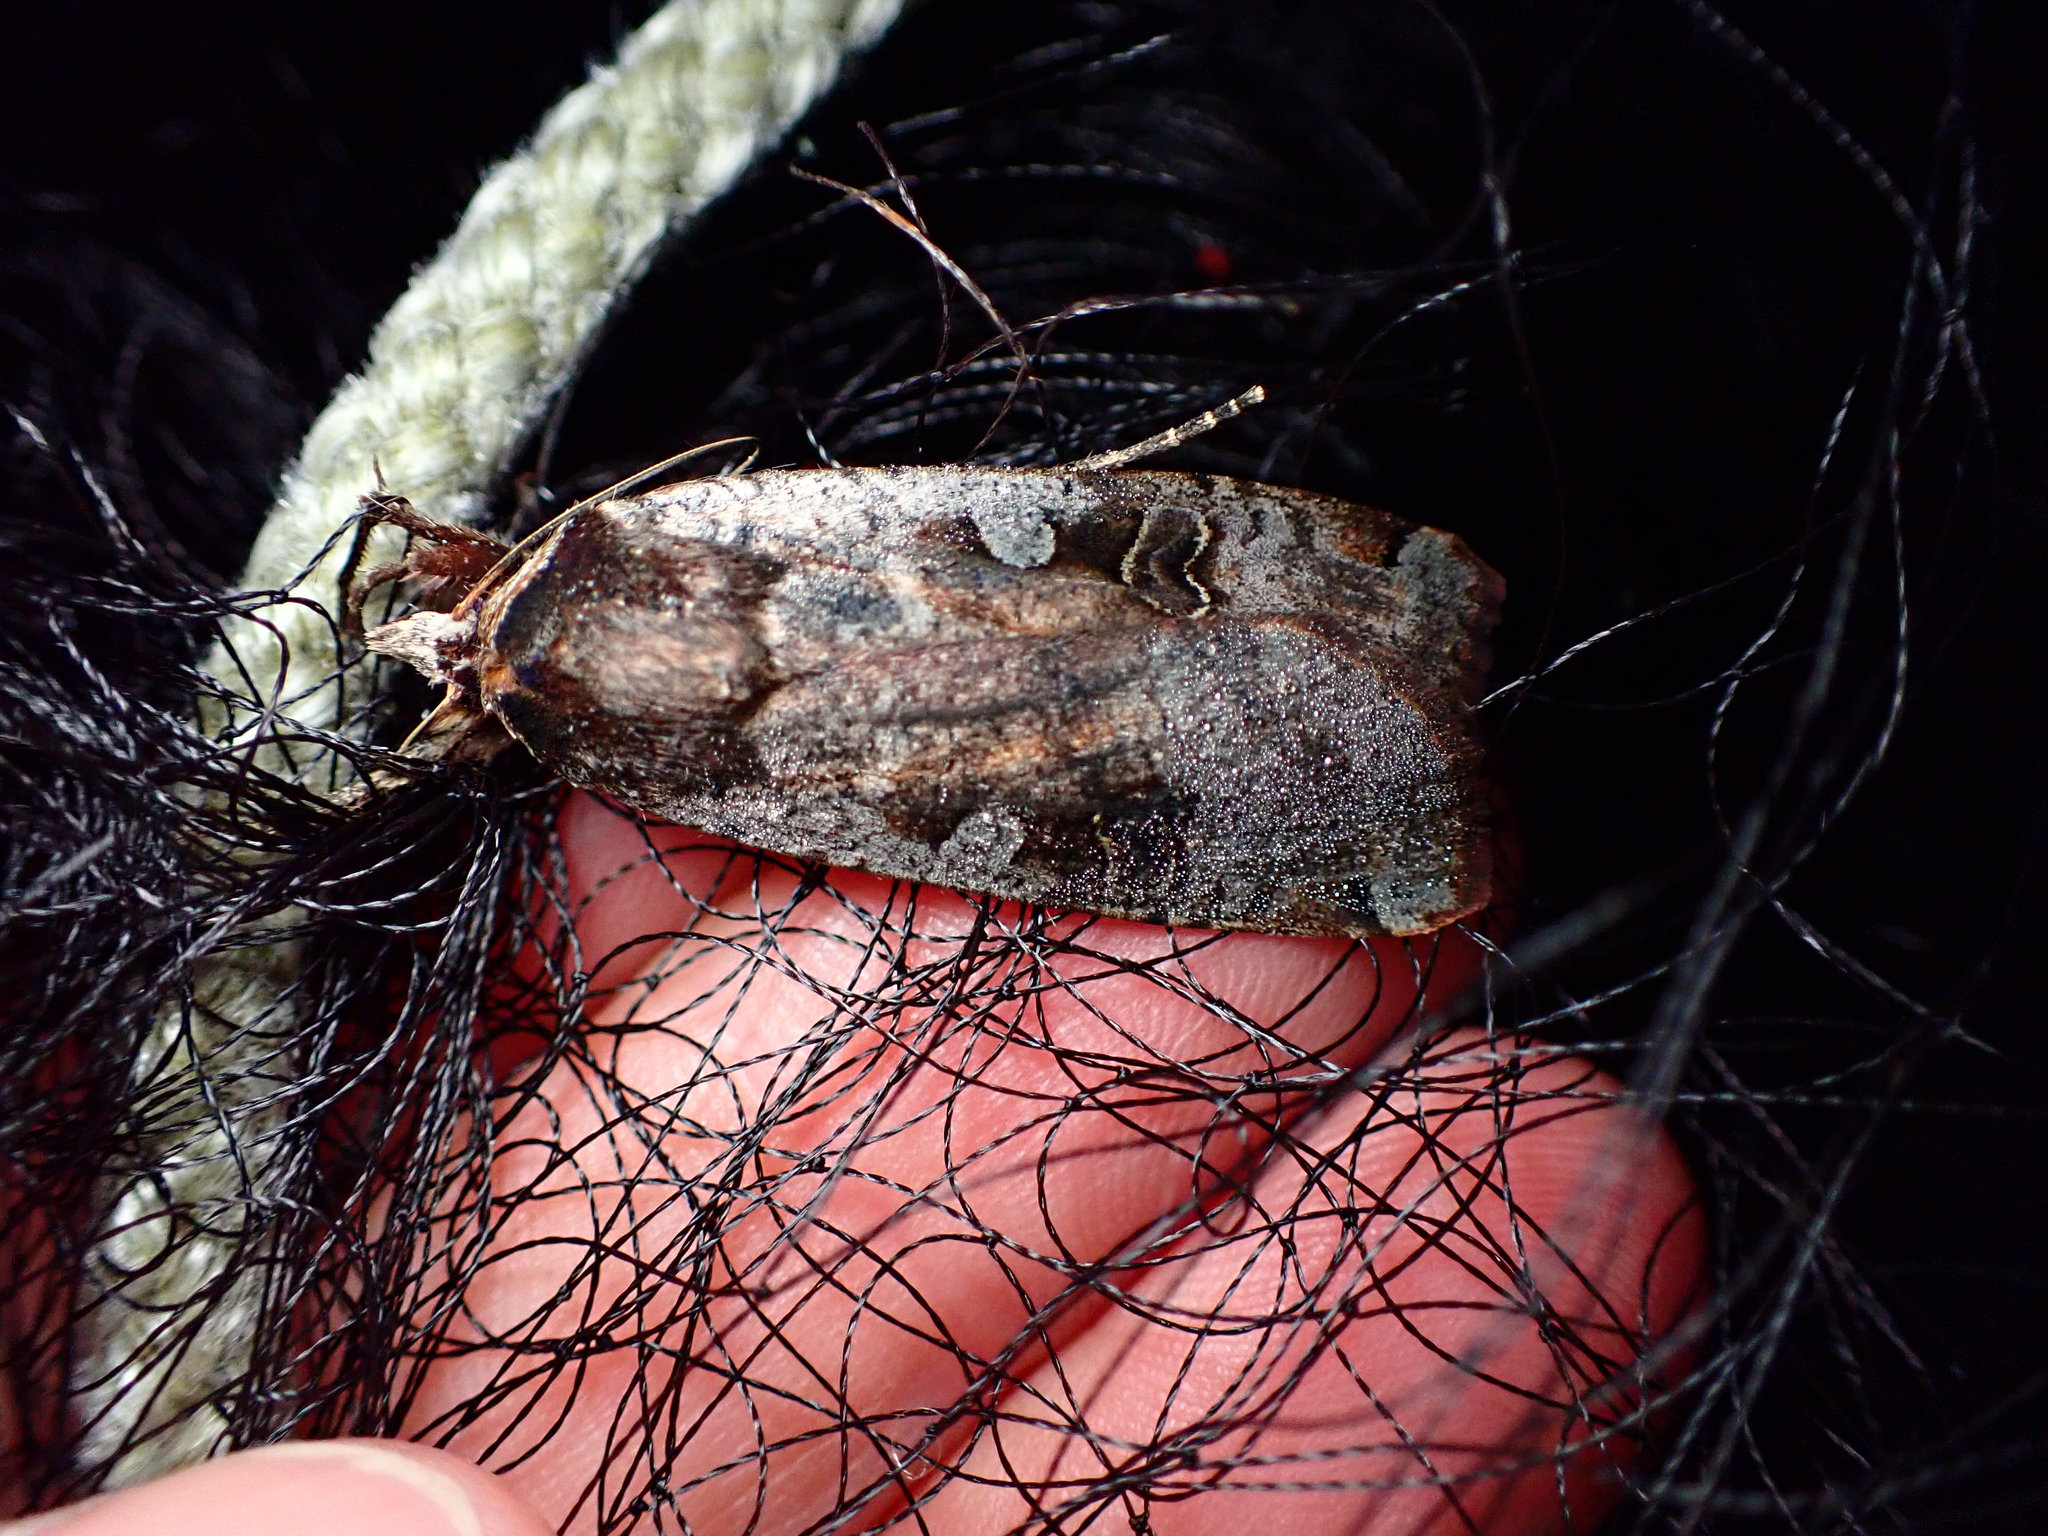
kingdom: Animalia
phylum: Arthropoda
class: Insecta
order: Lepidoptera
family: Noctuidae
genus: Noctua
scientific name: Noctua pronuba
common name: Large yellow underwing
